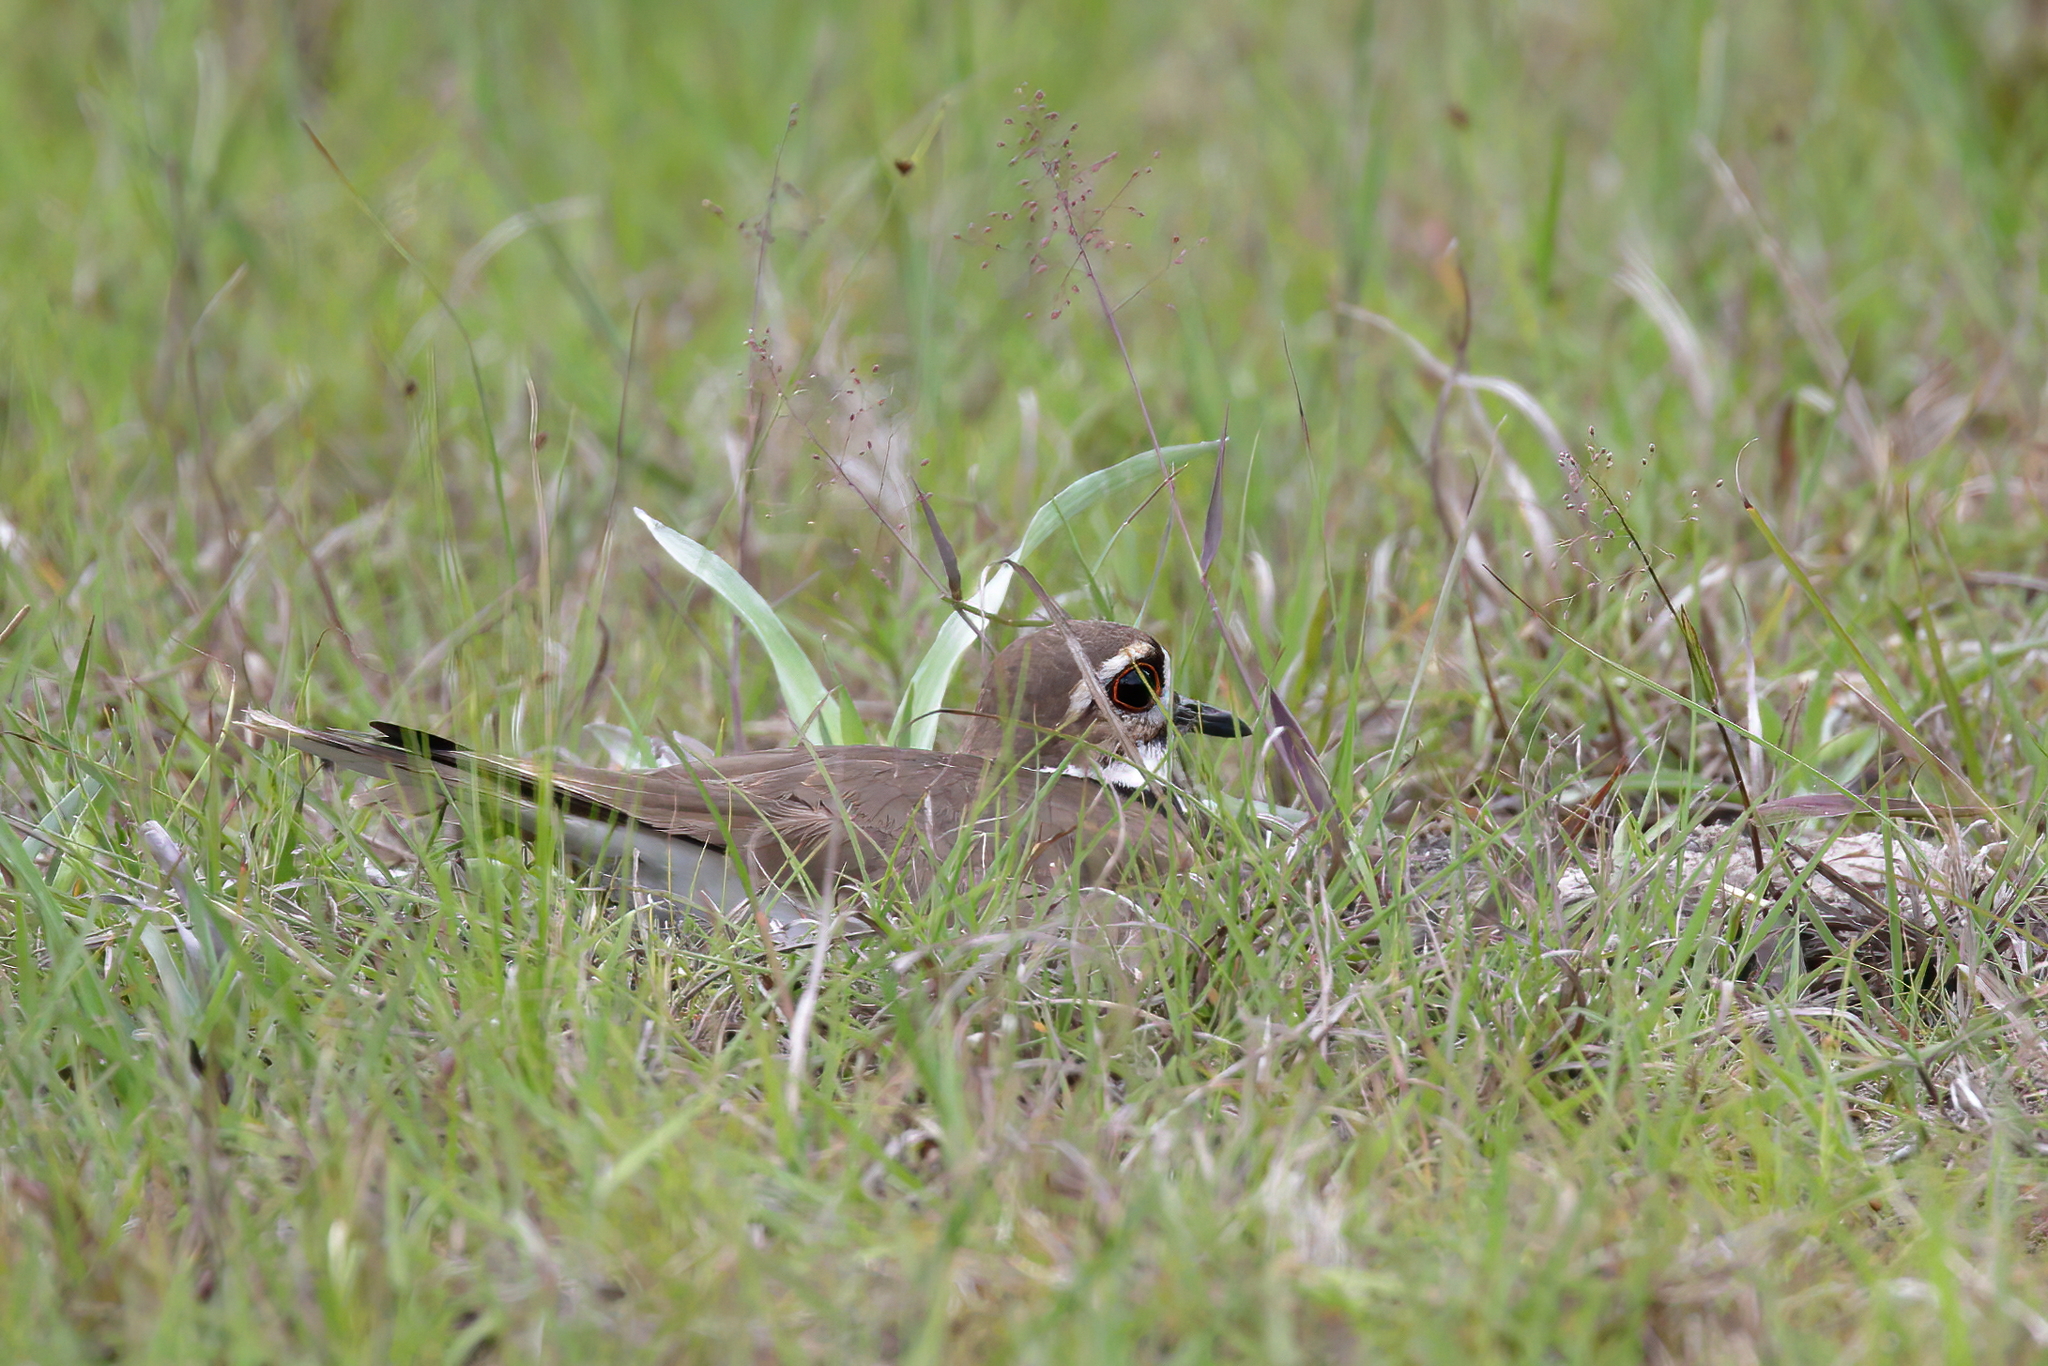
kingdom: Animalia
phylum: Chordata
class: Aves
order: Charadriiformes
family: Charadriidae
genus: Charadrius
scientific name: Charadrius vociferus
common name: Killdeer
